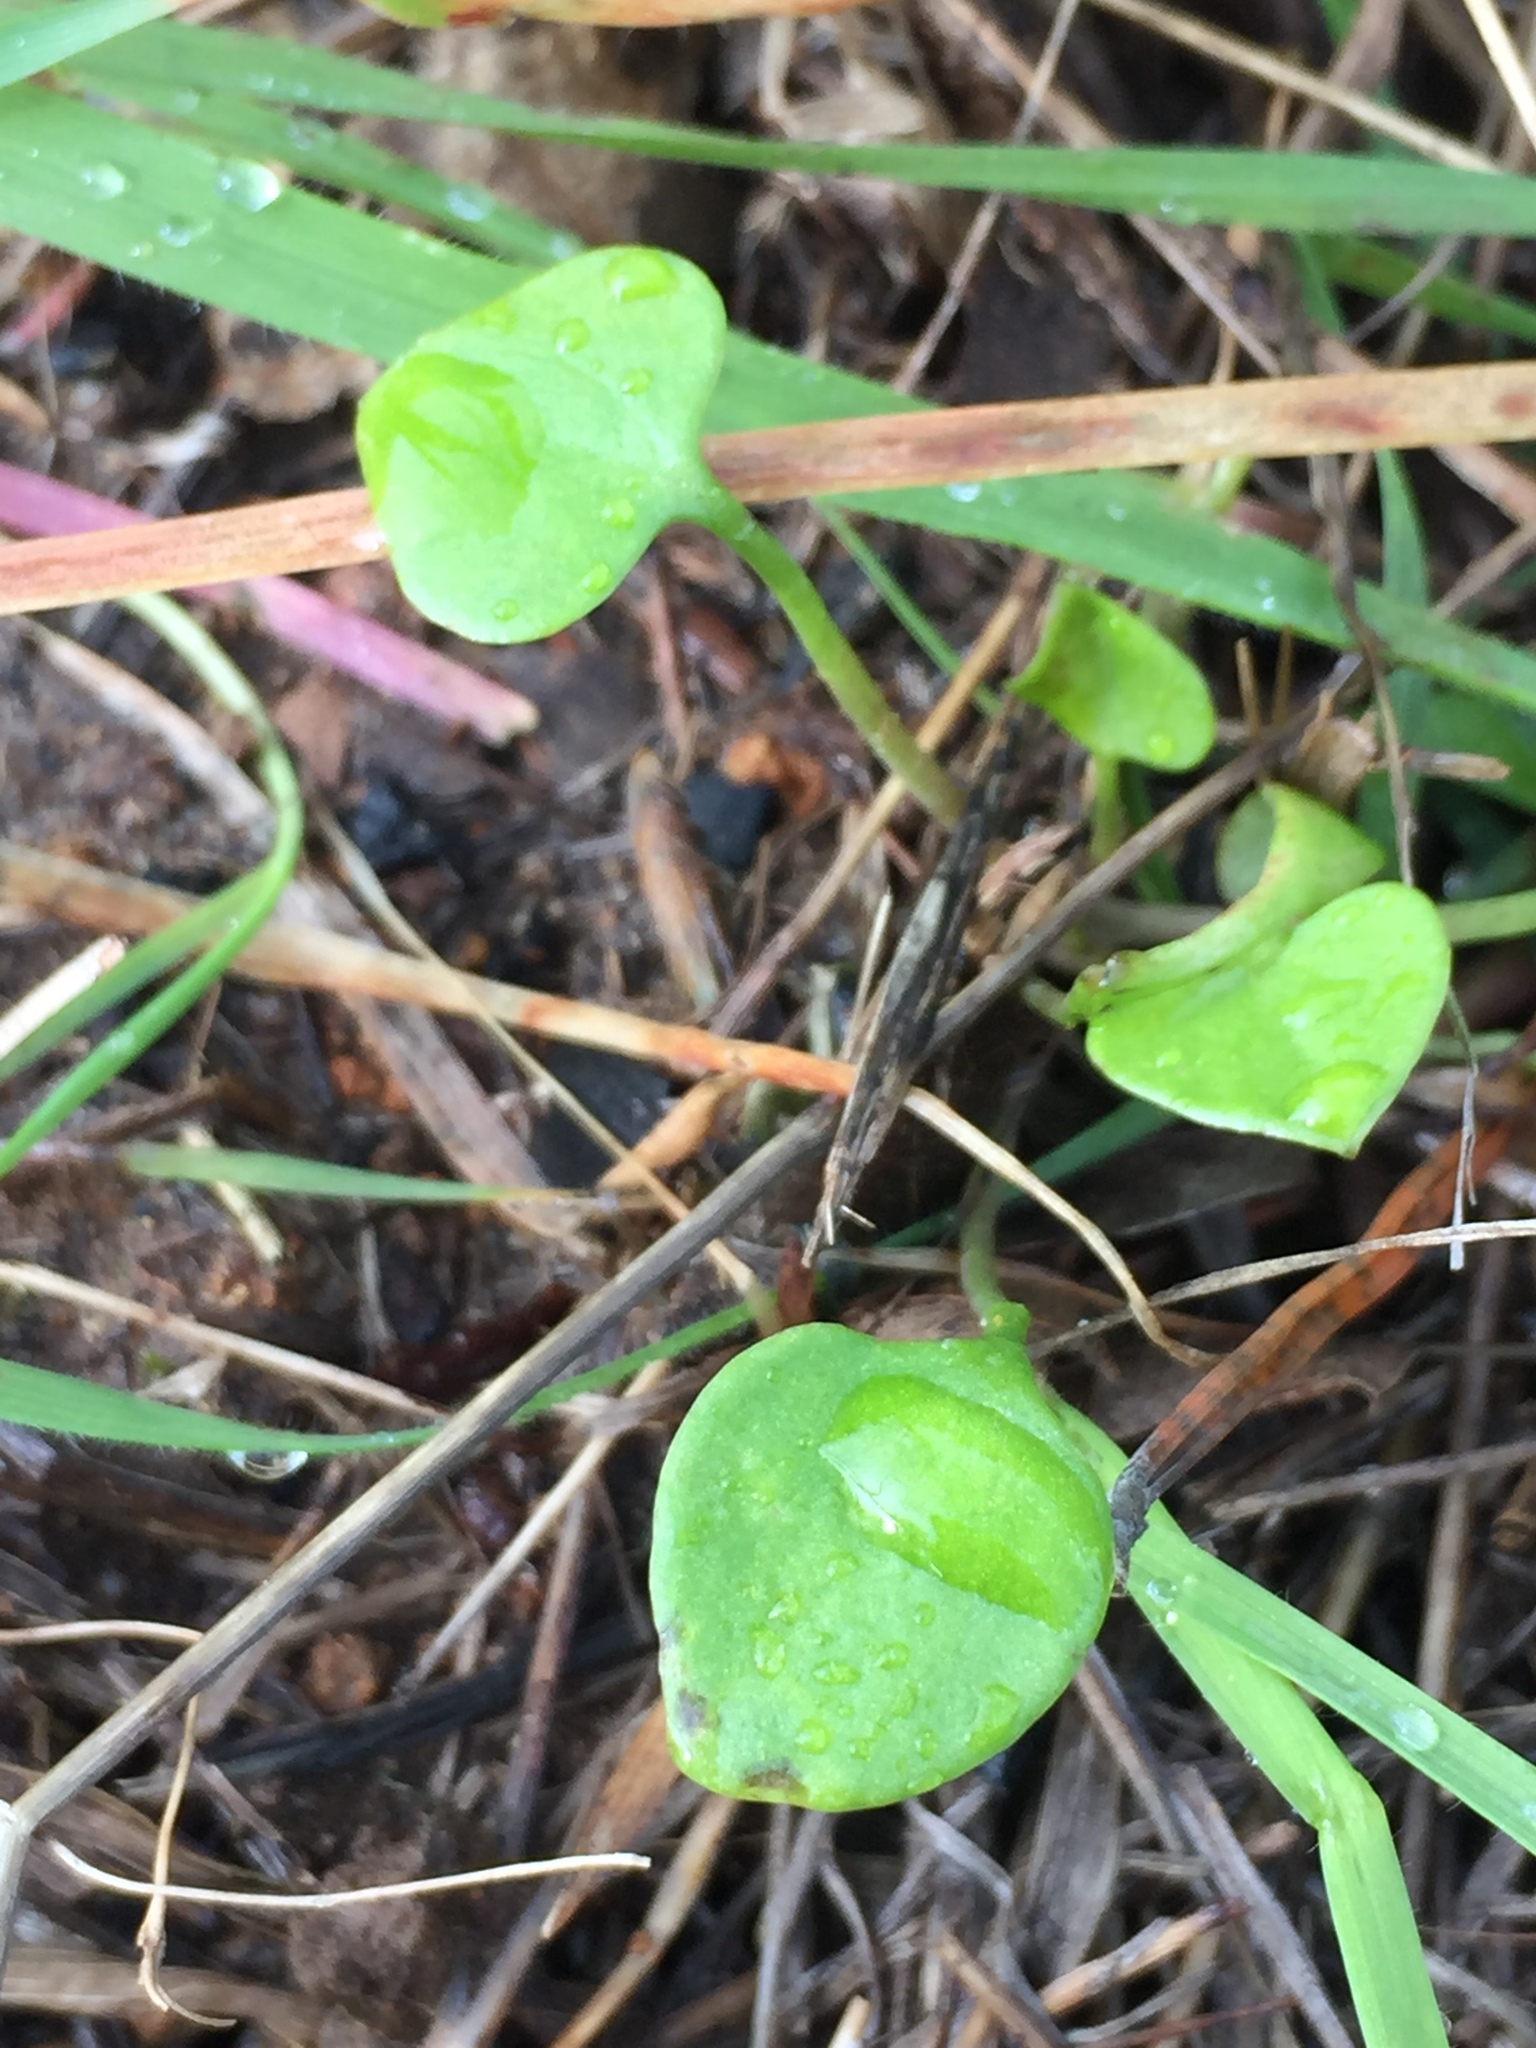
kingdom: Plantae
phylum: Tracheophyta
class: Magnoliopsida
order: Caryophyllales
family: Montiaceae
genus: Claytonia
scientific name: Claytonia perfoliata
